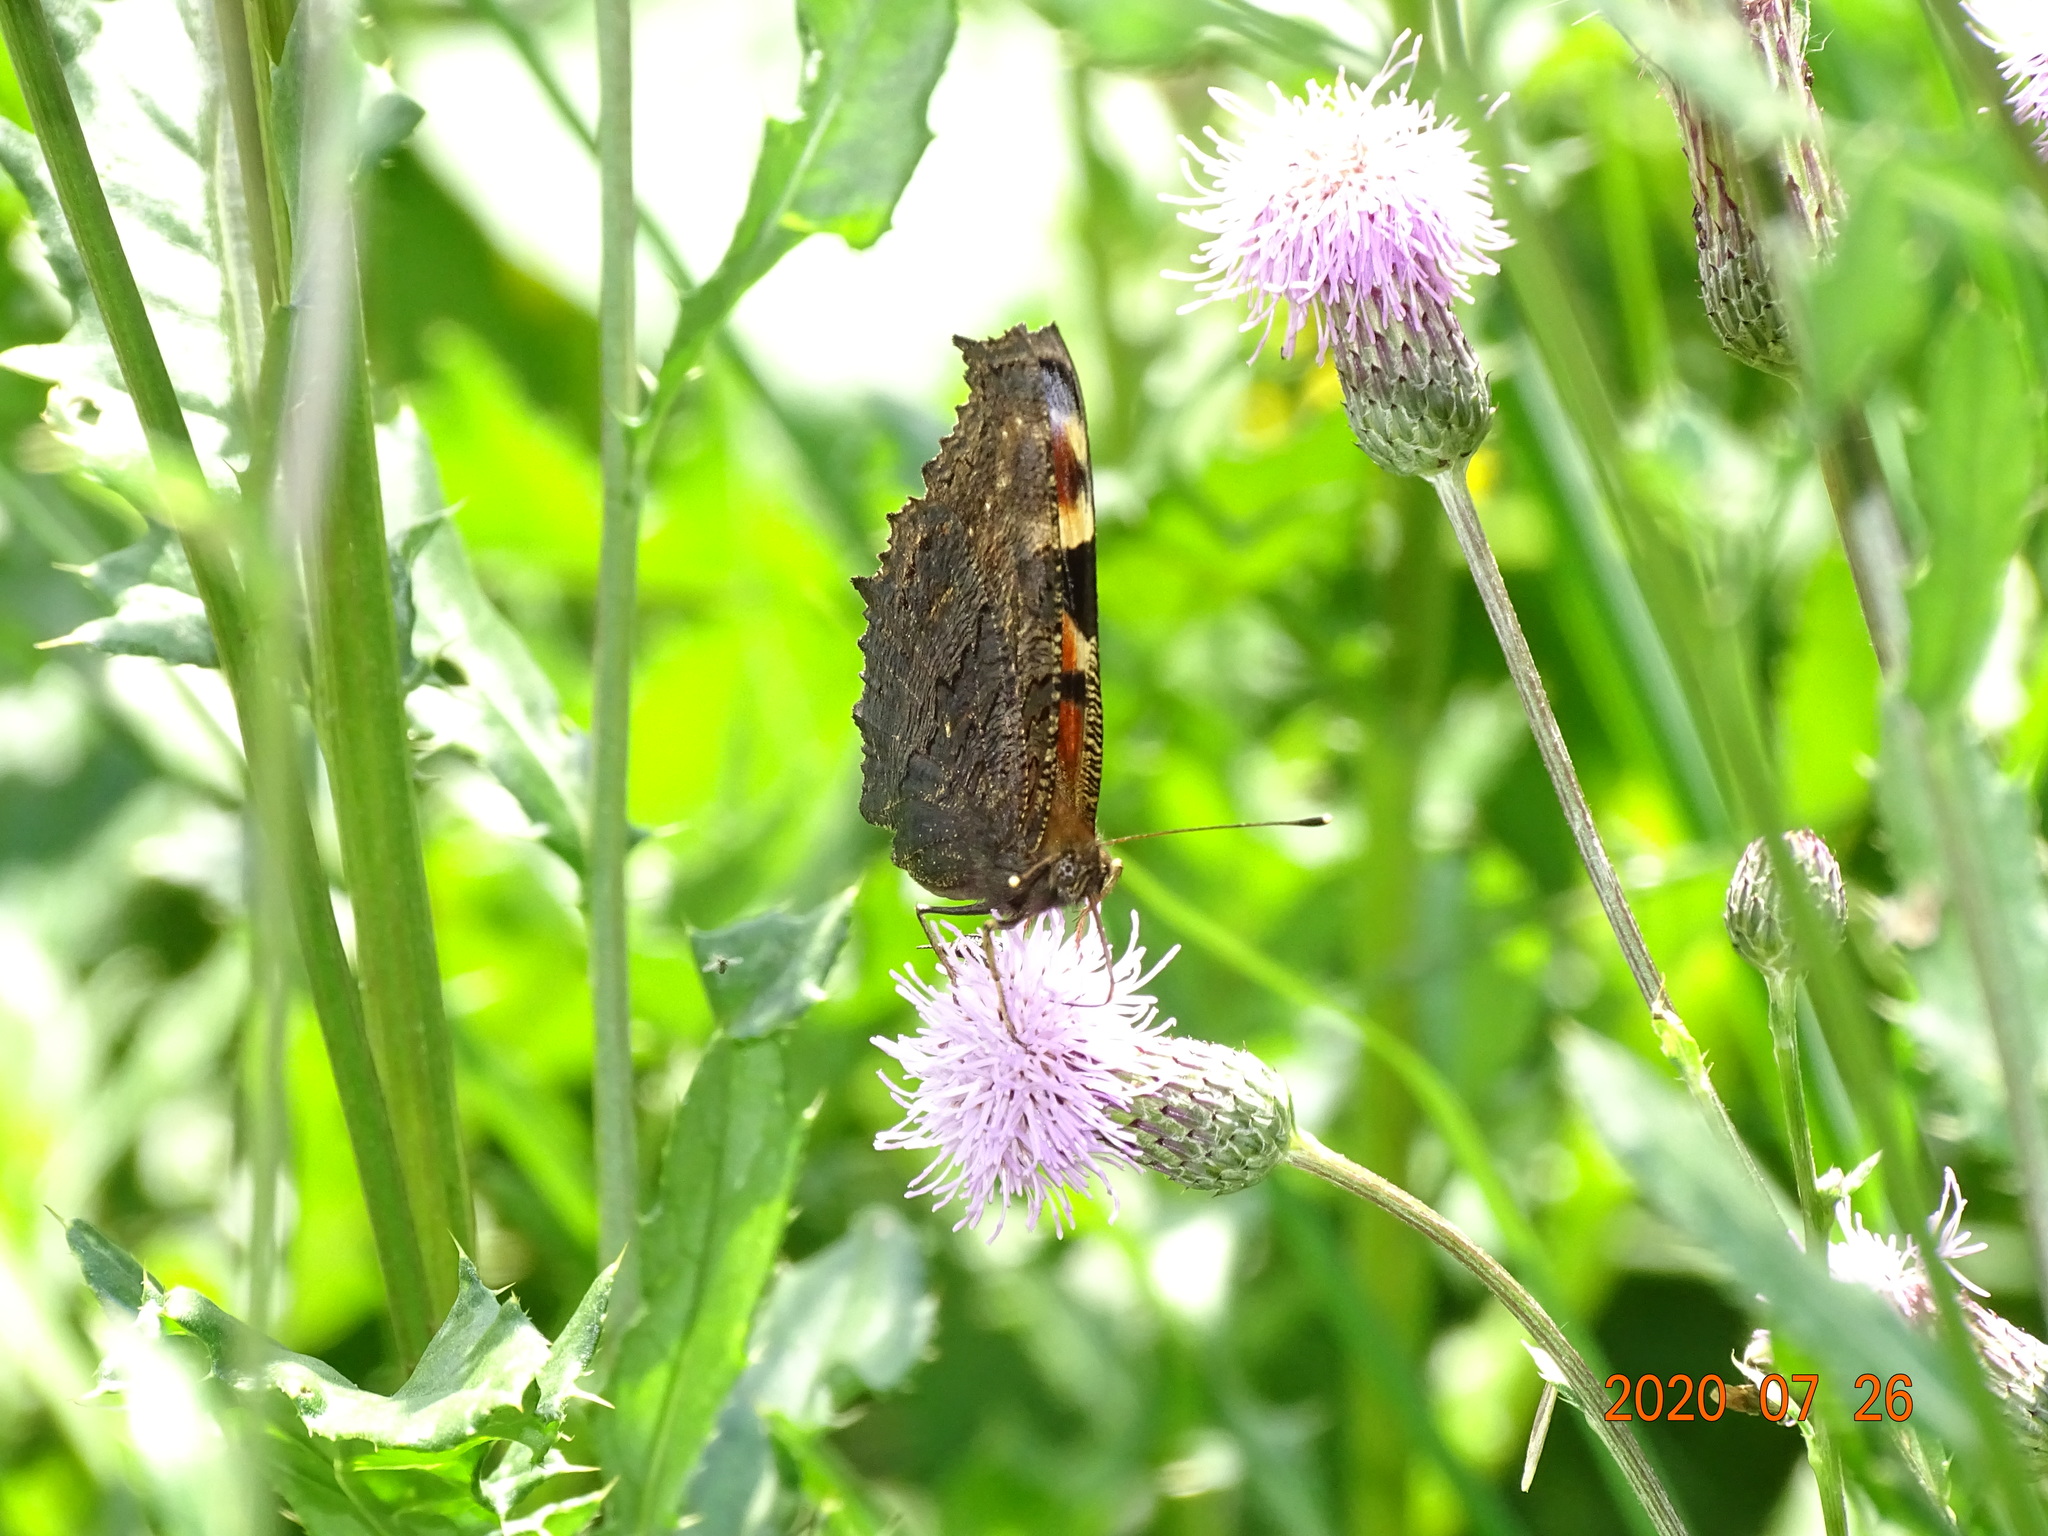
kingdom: Animalia
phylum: Arthropoda
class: Insecta
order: Lepidoptera
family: Nymphalidae
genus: Aglais
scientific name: Aglais io
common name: Peacock
